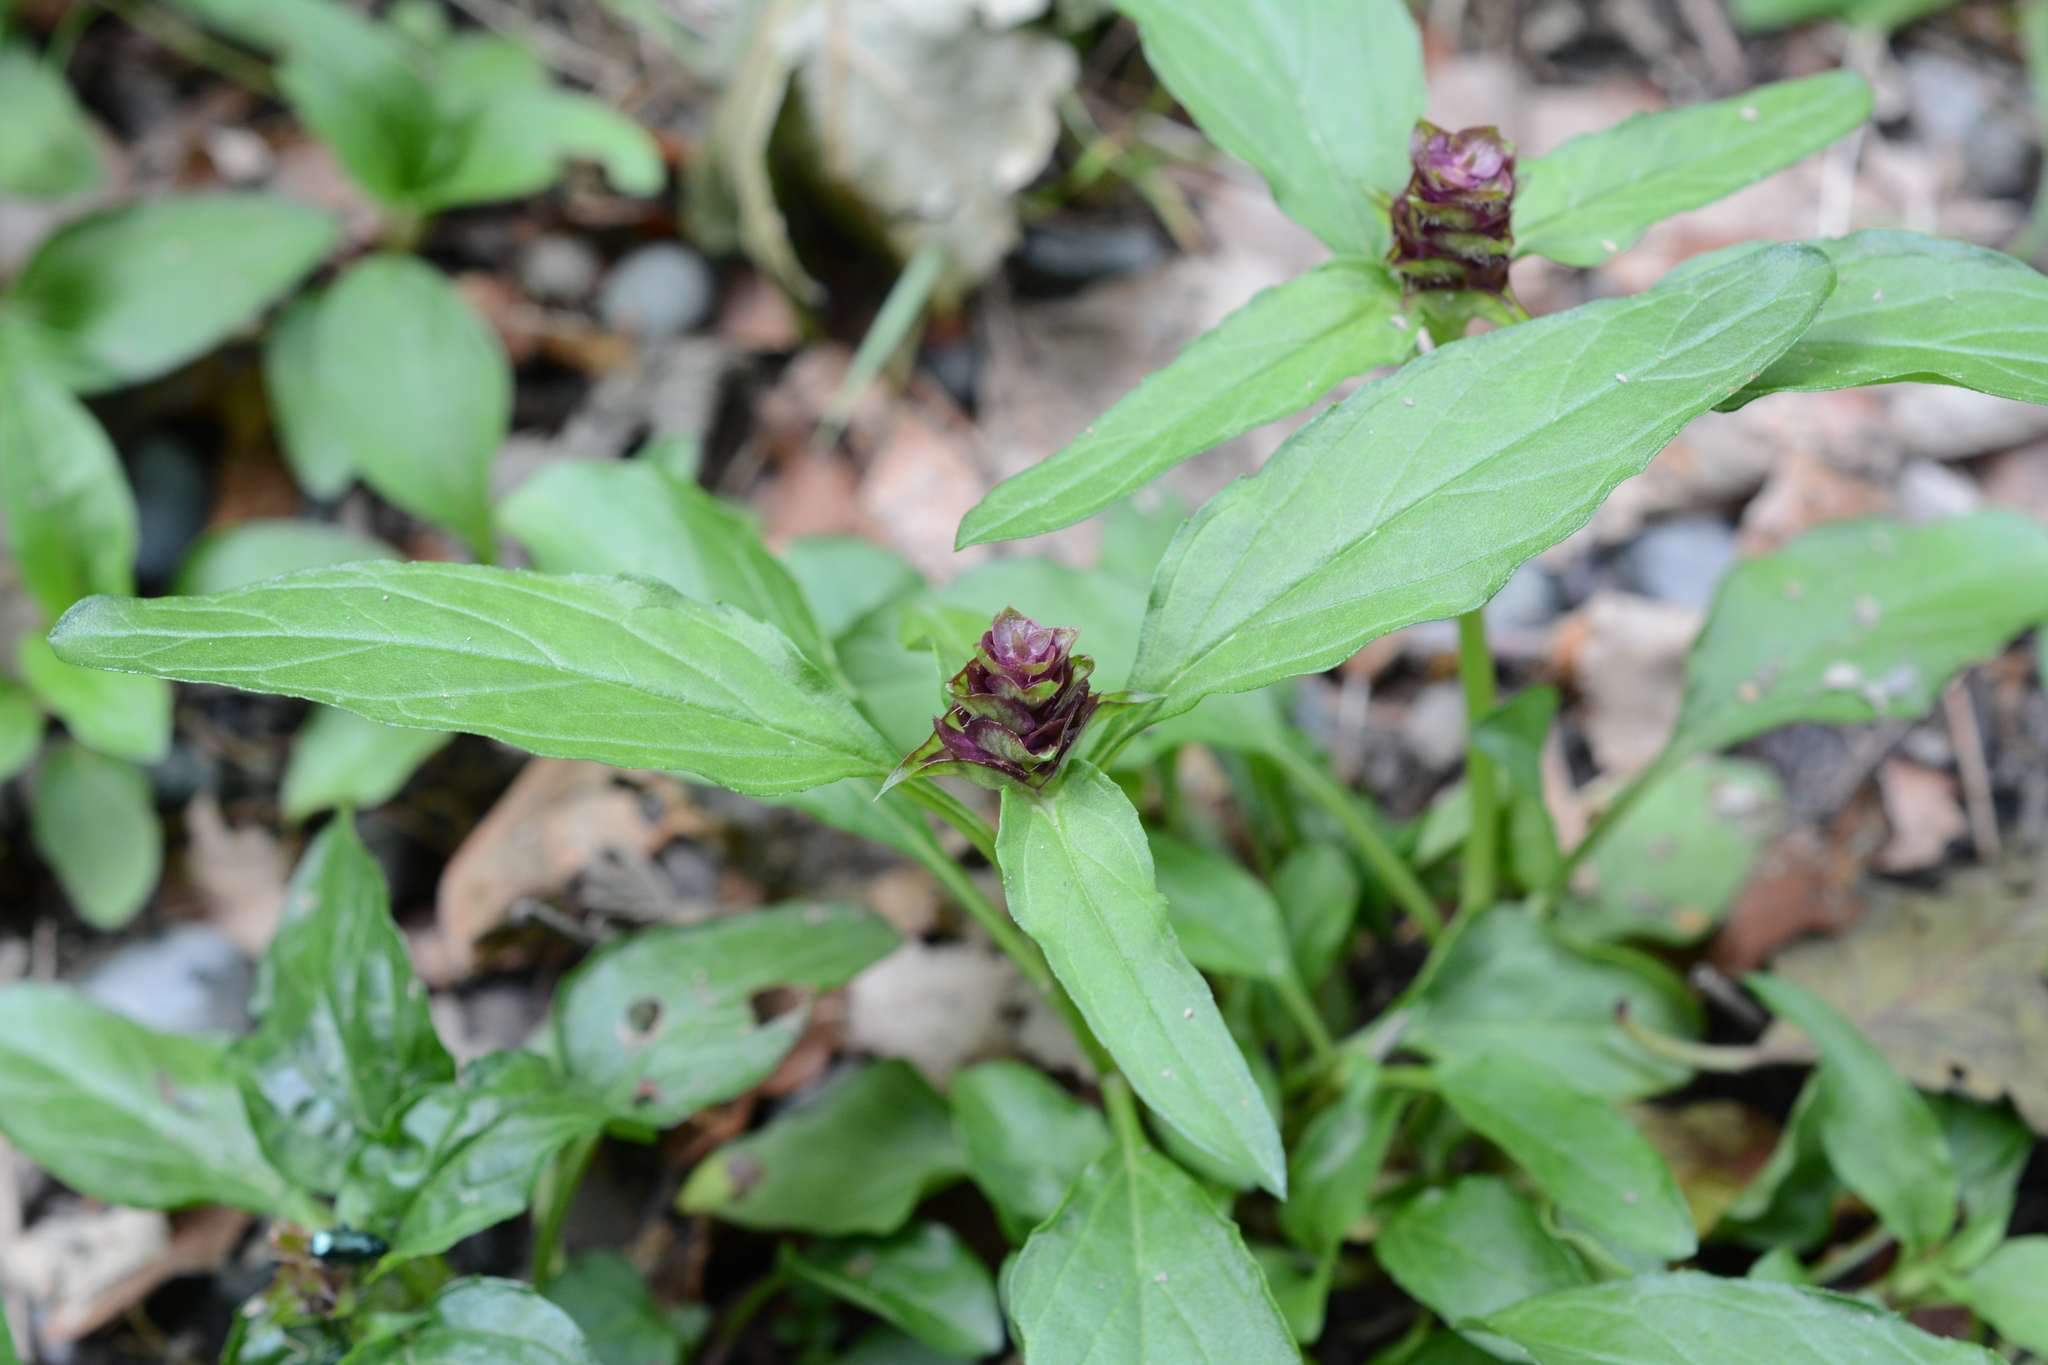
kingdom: Plantae
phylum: Tracheophyta
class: Magnoliopsida
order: Lamiales
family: Lamiaceae
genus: Prunella
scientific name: Prunella vulgaris
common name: Heal-all
